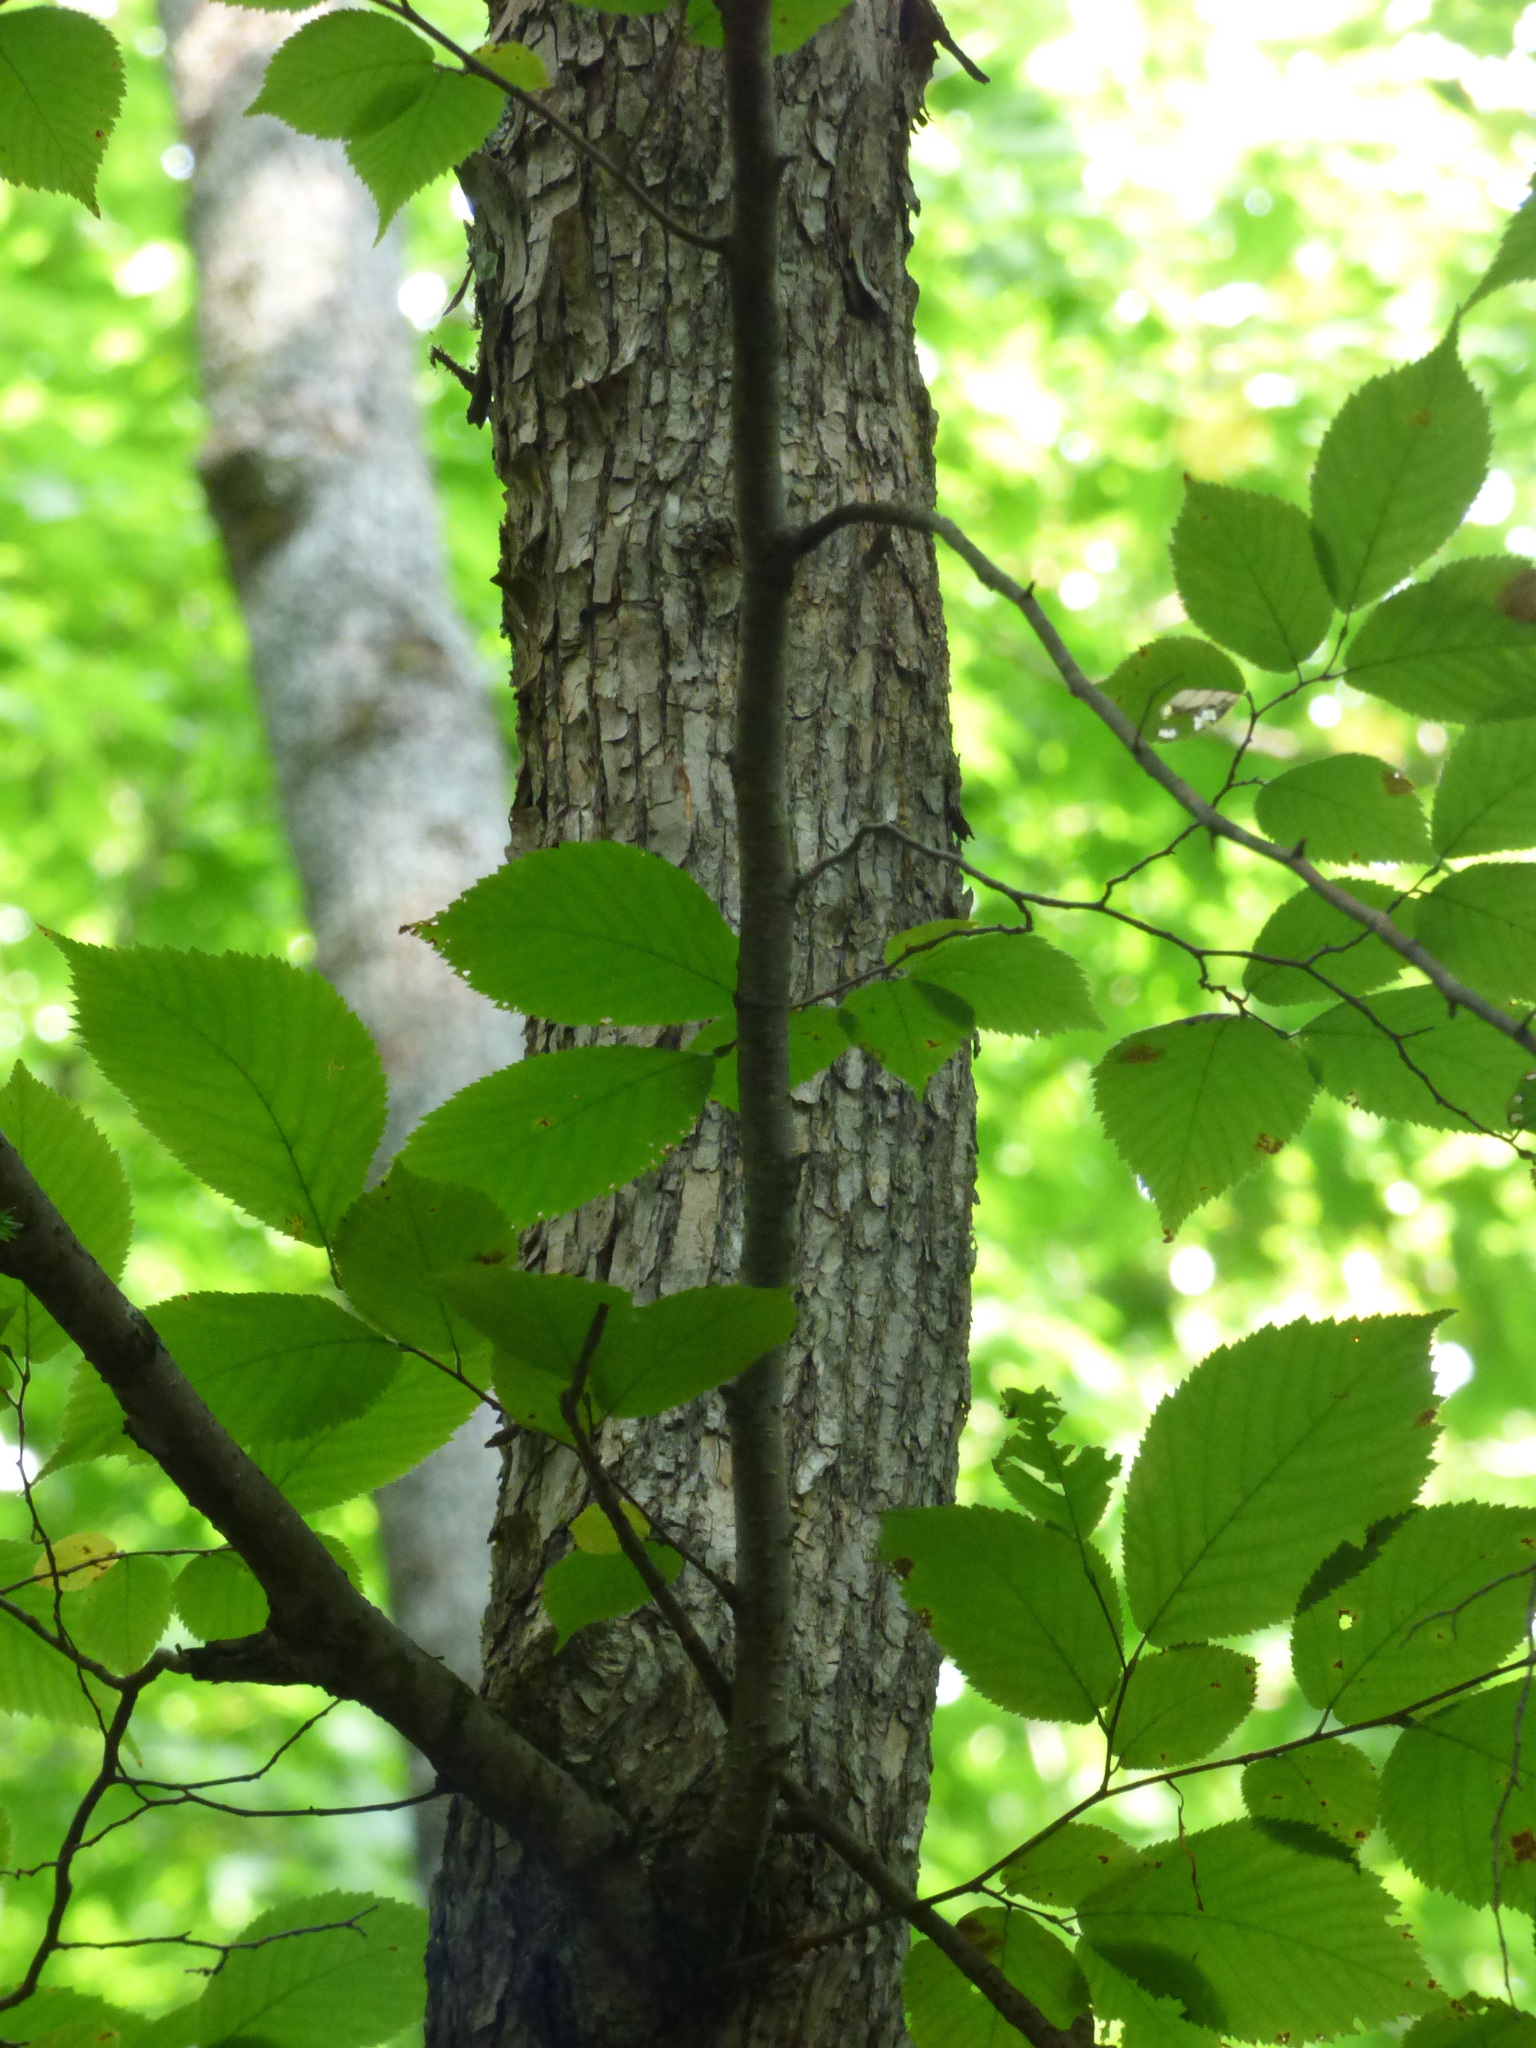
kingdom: Plantae
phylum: Tracheophyta
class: Magnoliopsida
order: Fagales
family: Betulaceae
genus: Ostrya
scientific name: Ostrya virginiana
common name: Ironwood
